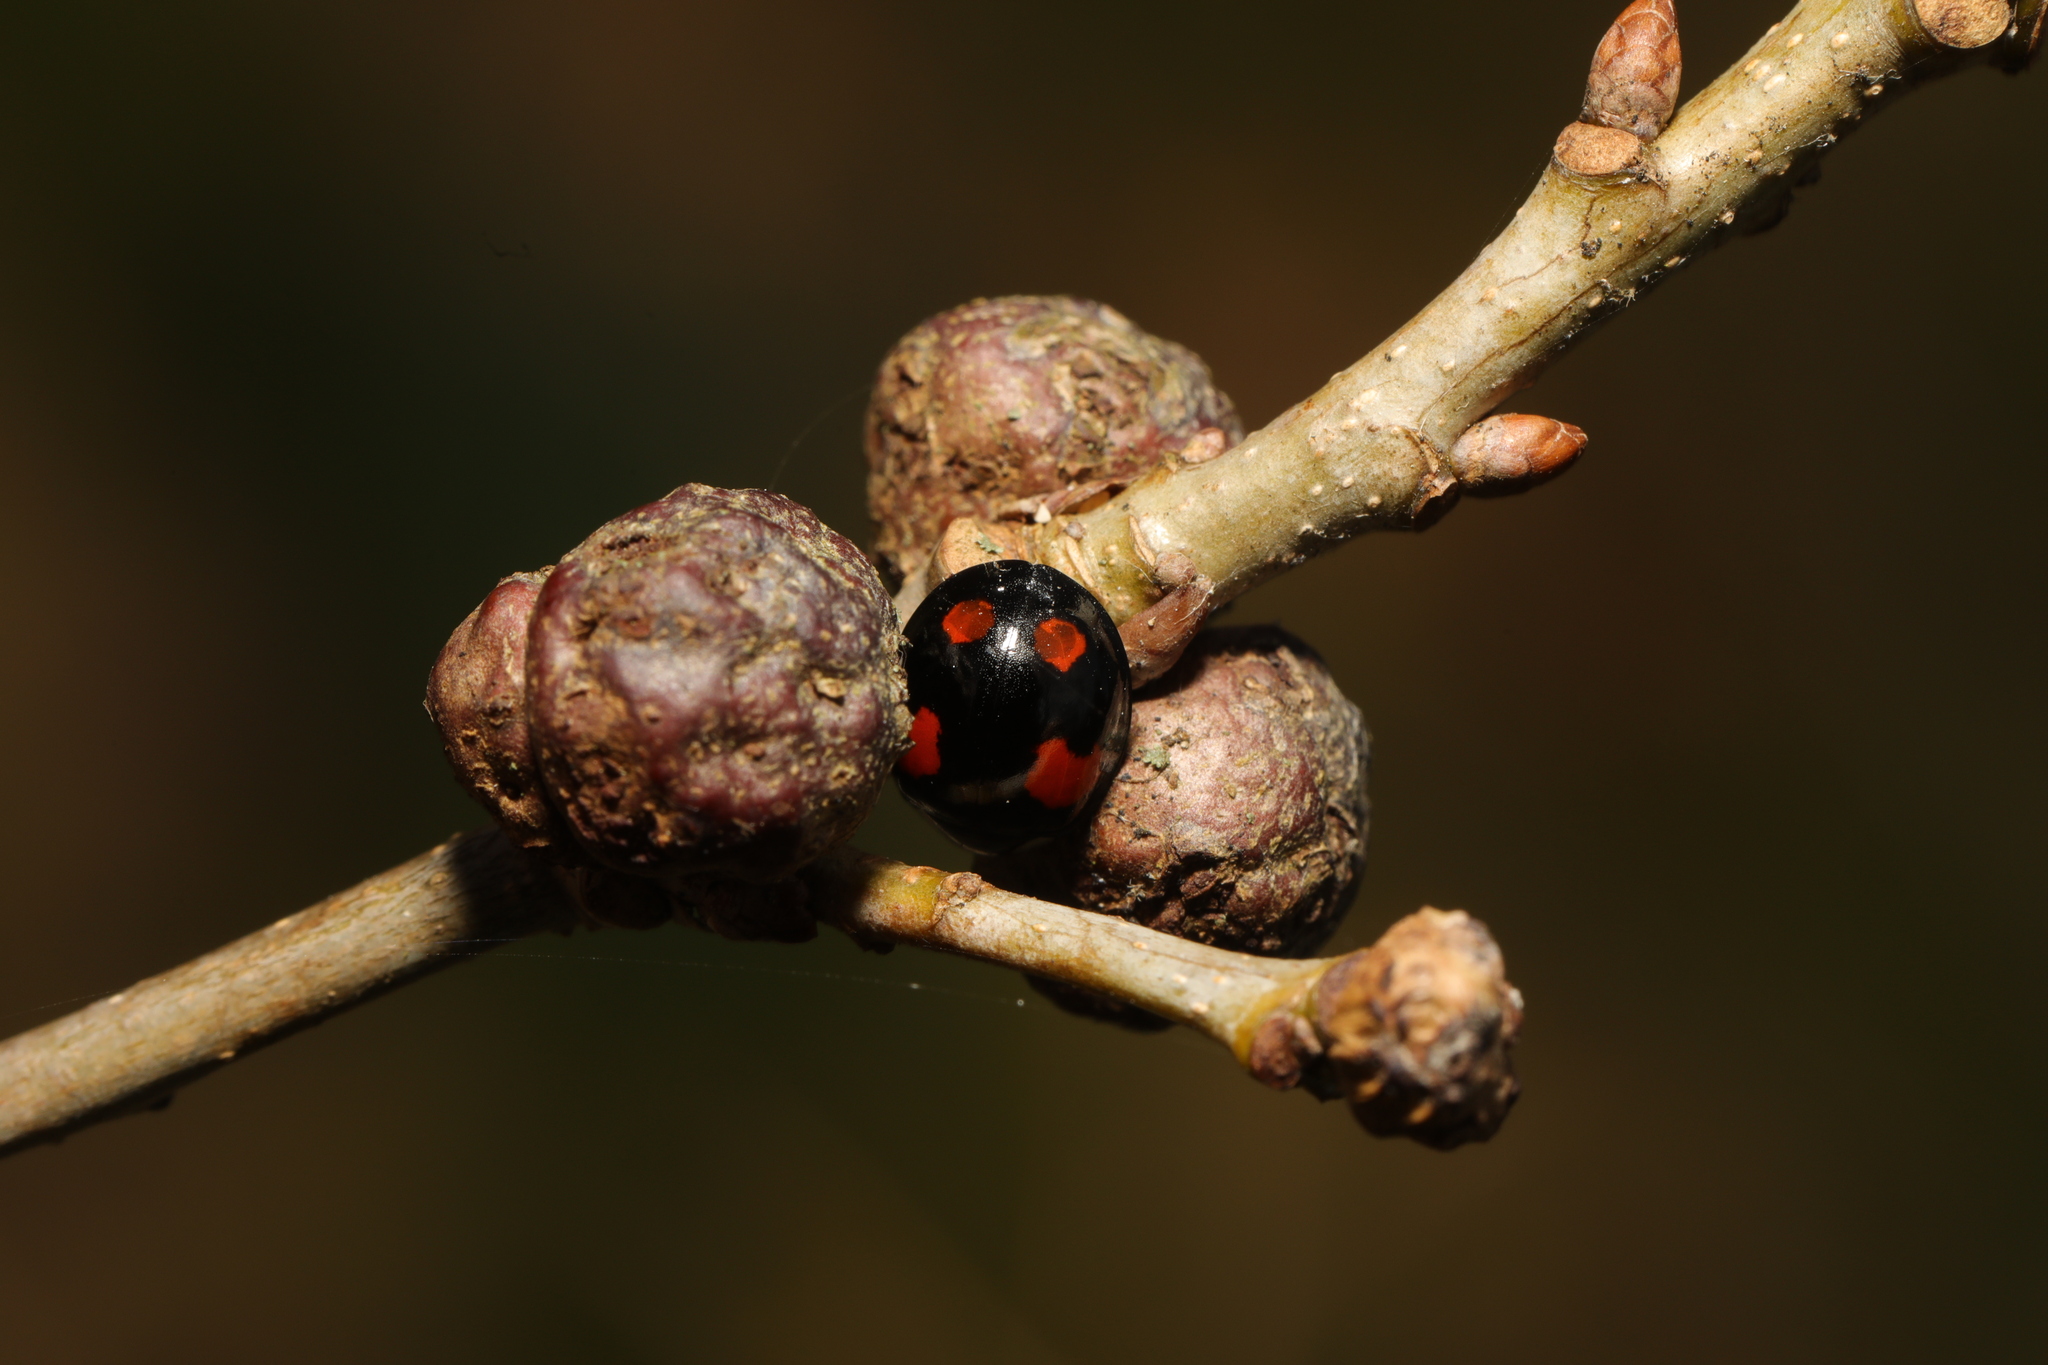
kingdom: Animalia
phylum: Arthropoda
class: Insecta
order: Coleoptera
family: Coccinellidae
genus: Harmonia
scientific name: Harmonia axyridis
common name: Harlequin ladybird
